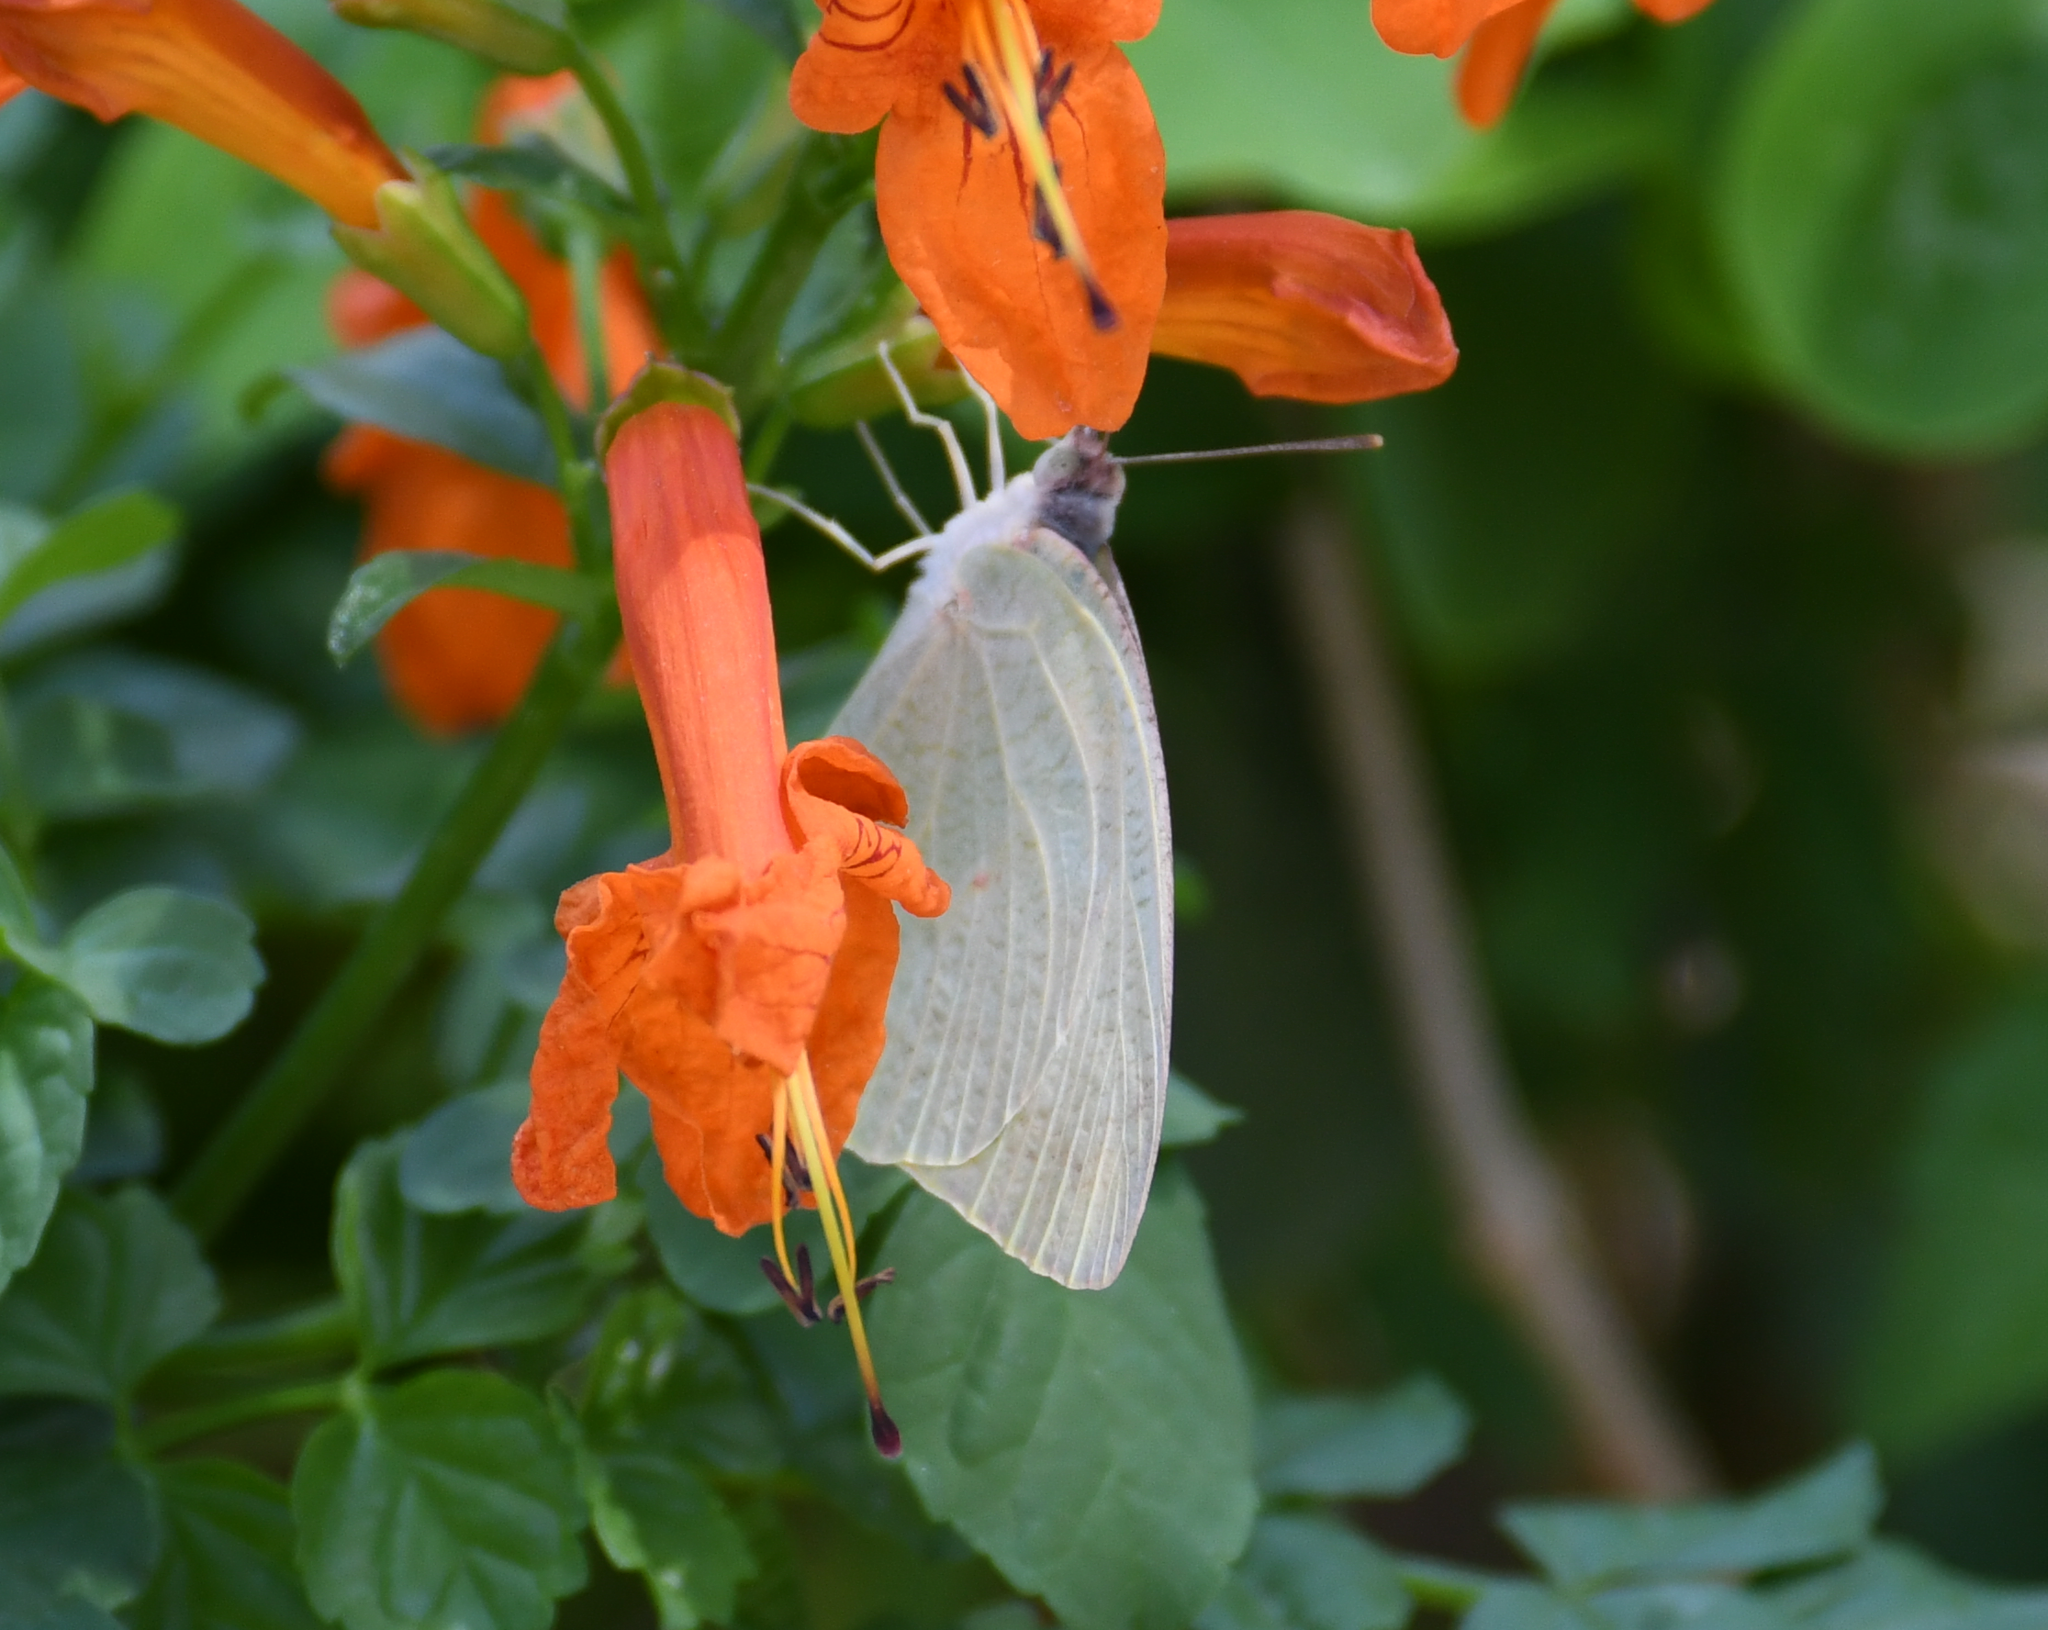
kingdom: Animalia
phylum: Arthropoda
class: Insecta
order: Lepidoptera
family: Pieridae
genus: Catopsilia
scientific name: Catopsilia florella
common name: African migrant
